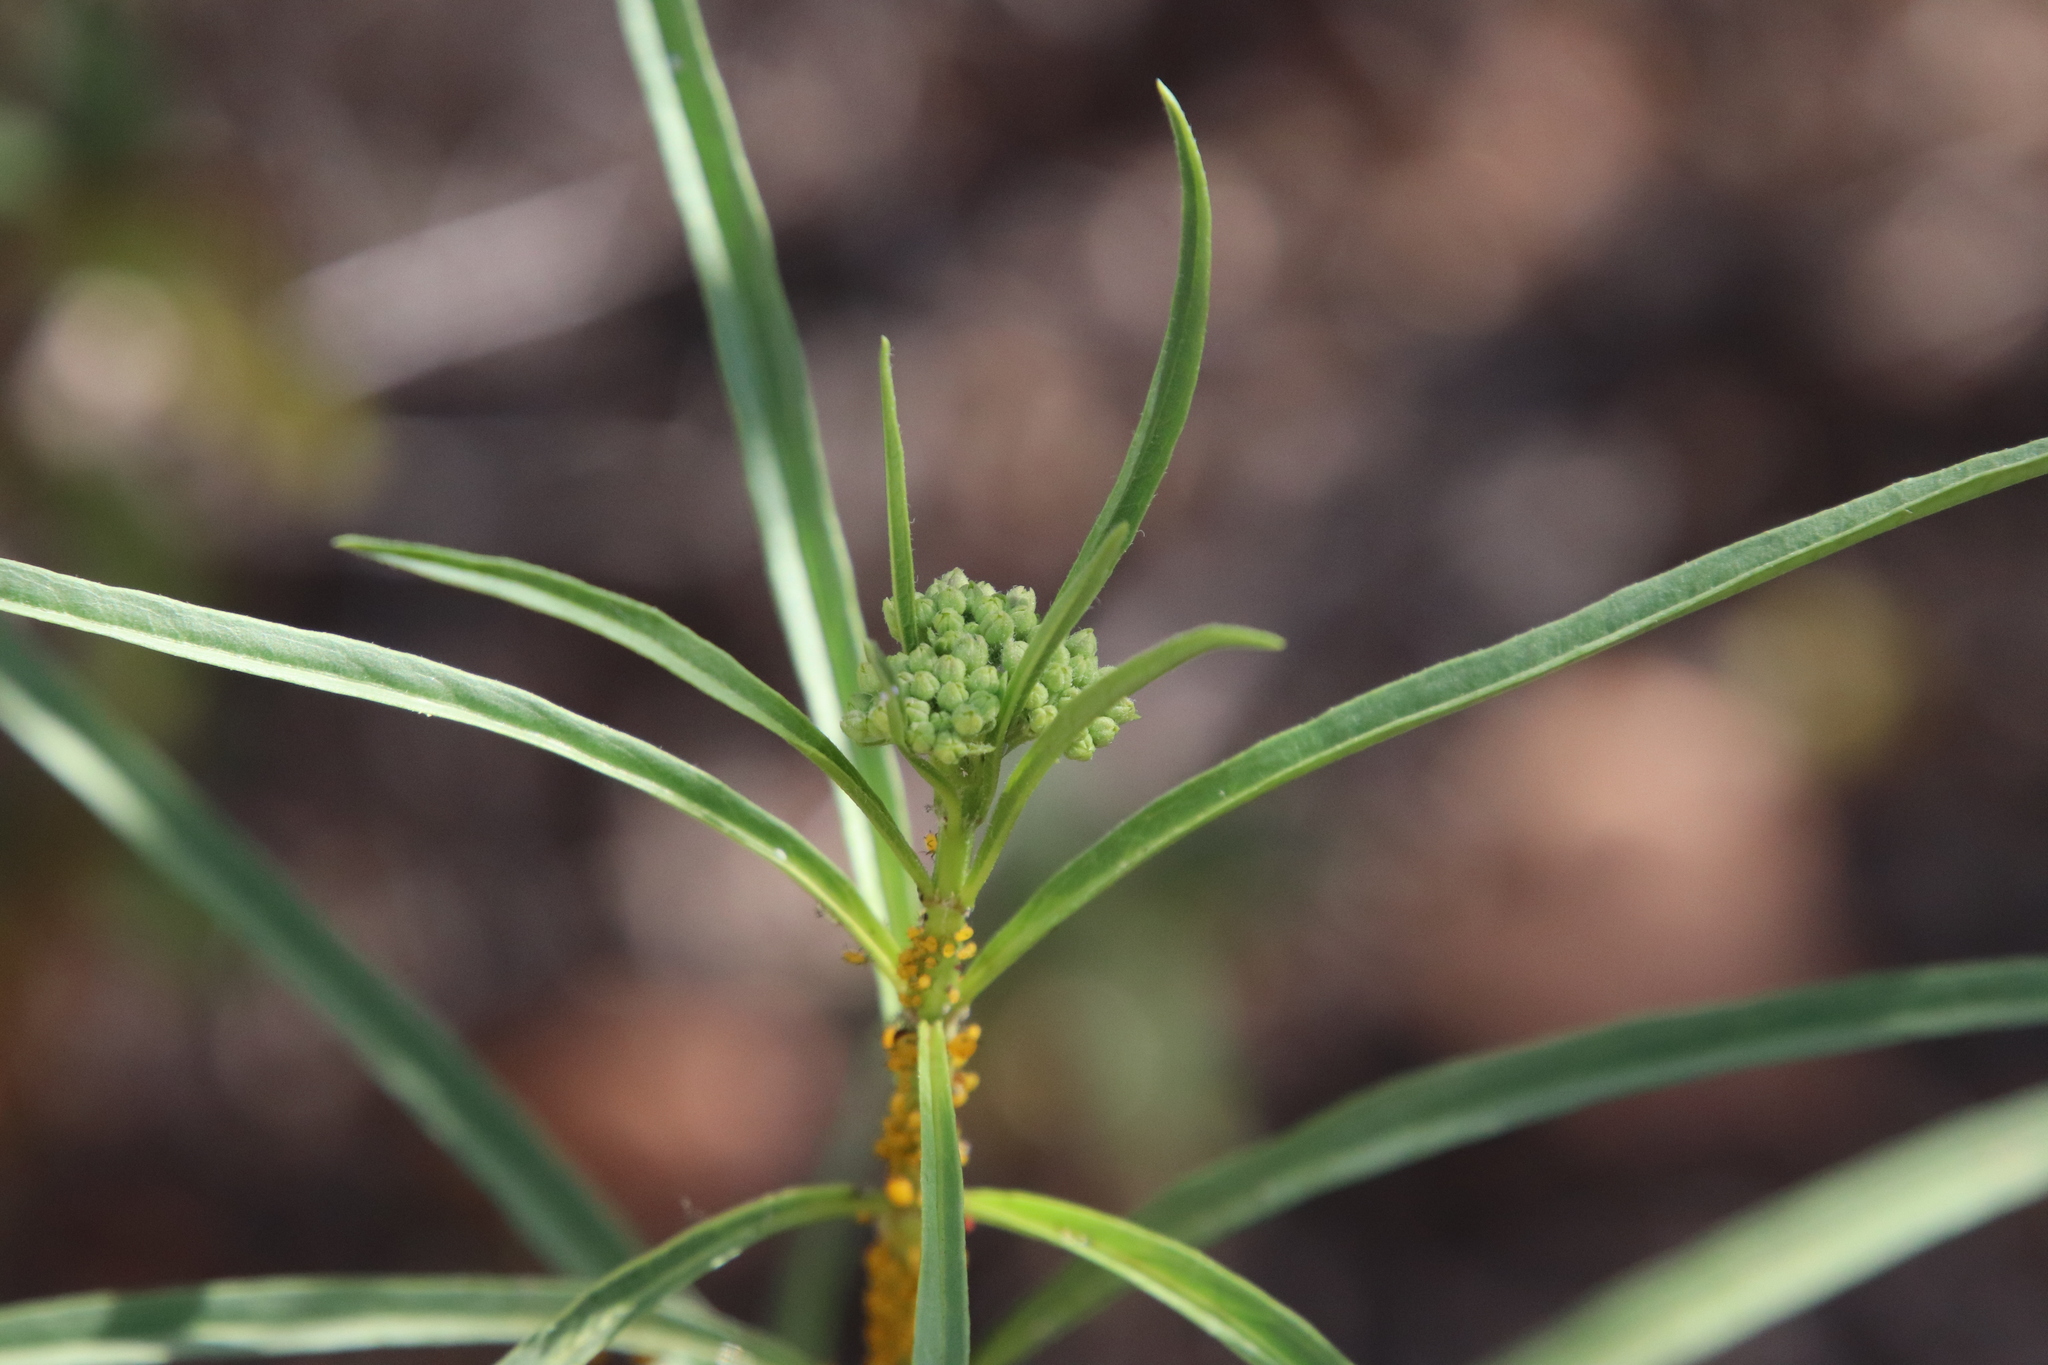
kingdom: Plantae
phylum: Tracheophyta
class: Magnoliopsida
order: Gentianales
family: Apocynaceae
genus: Asclepias
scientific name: Asclepias fascicularis
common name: Mexican milkweed
